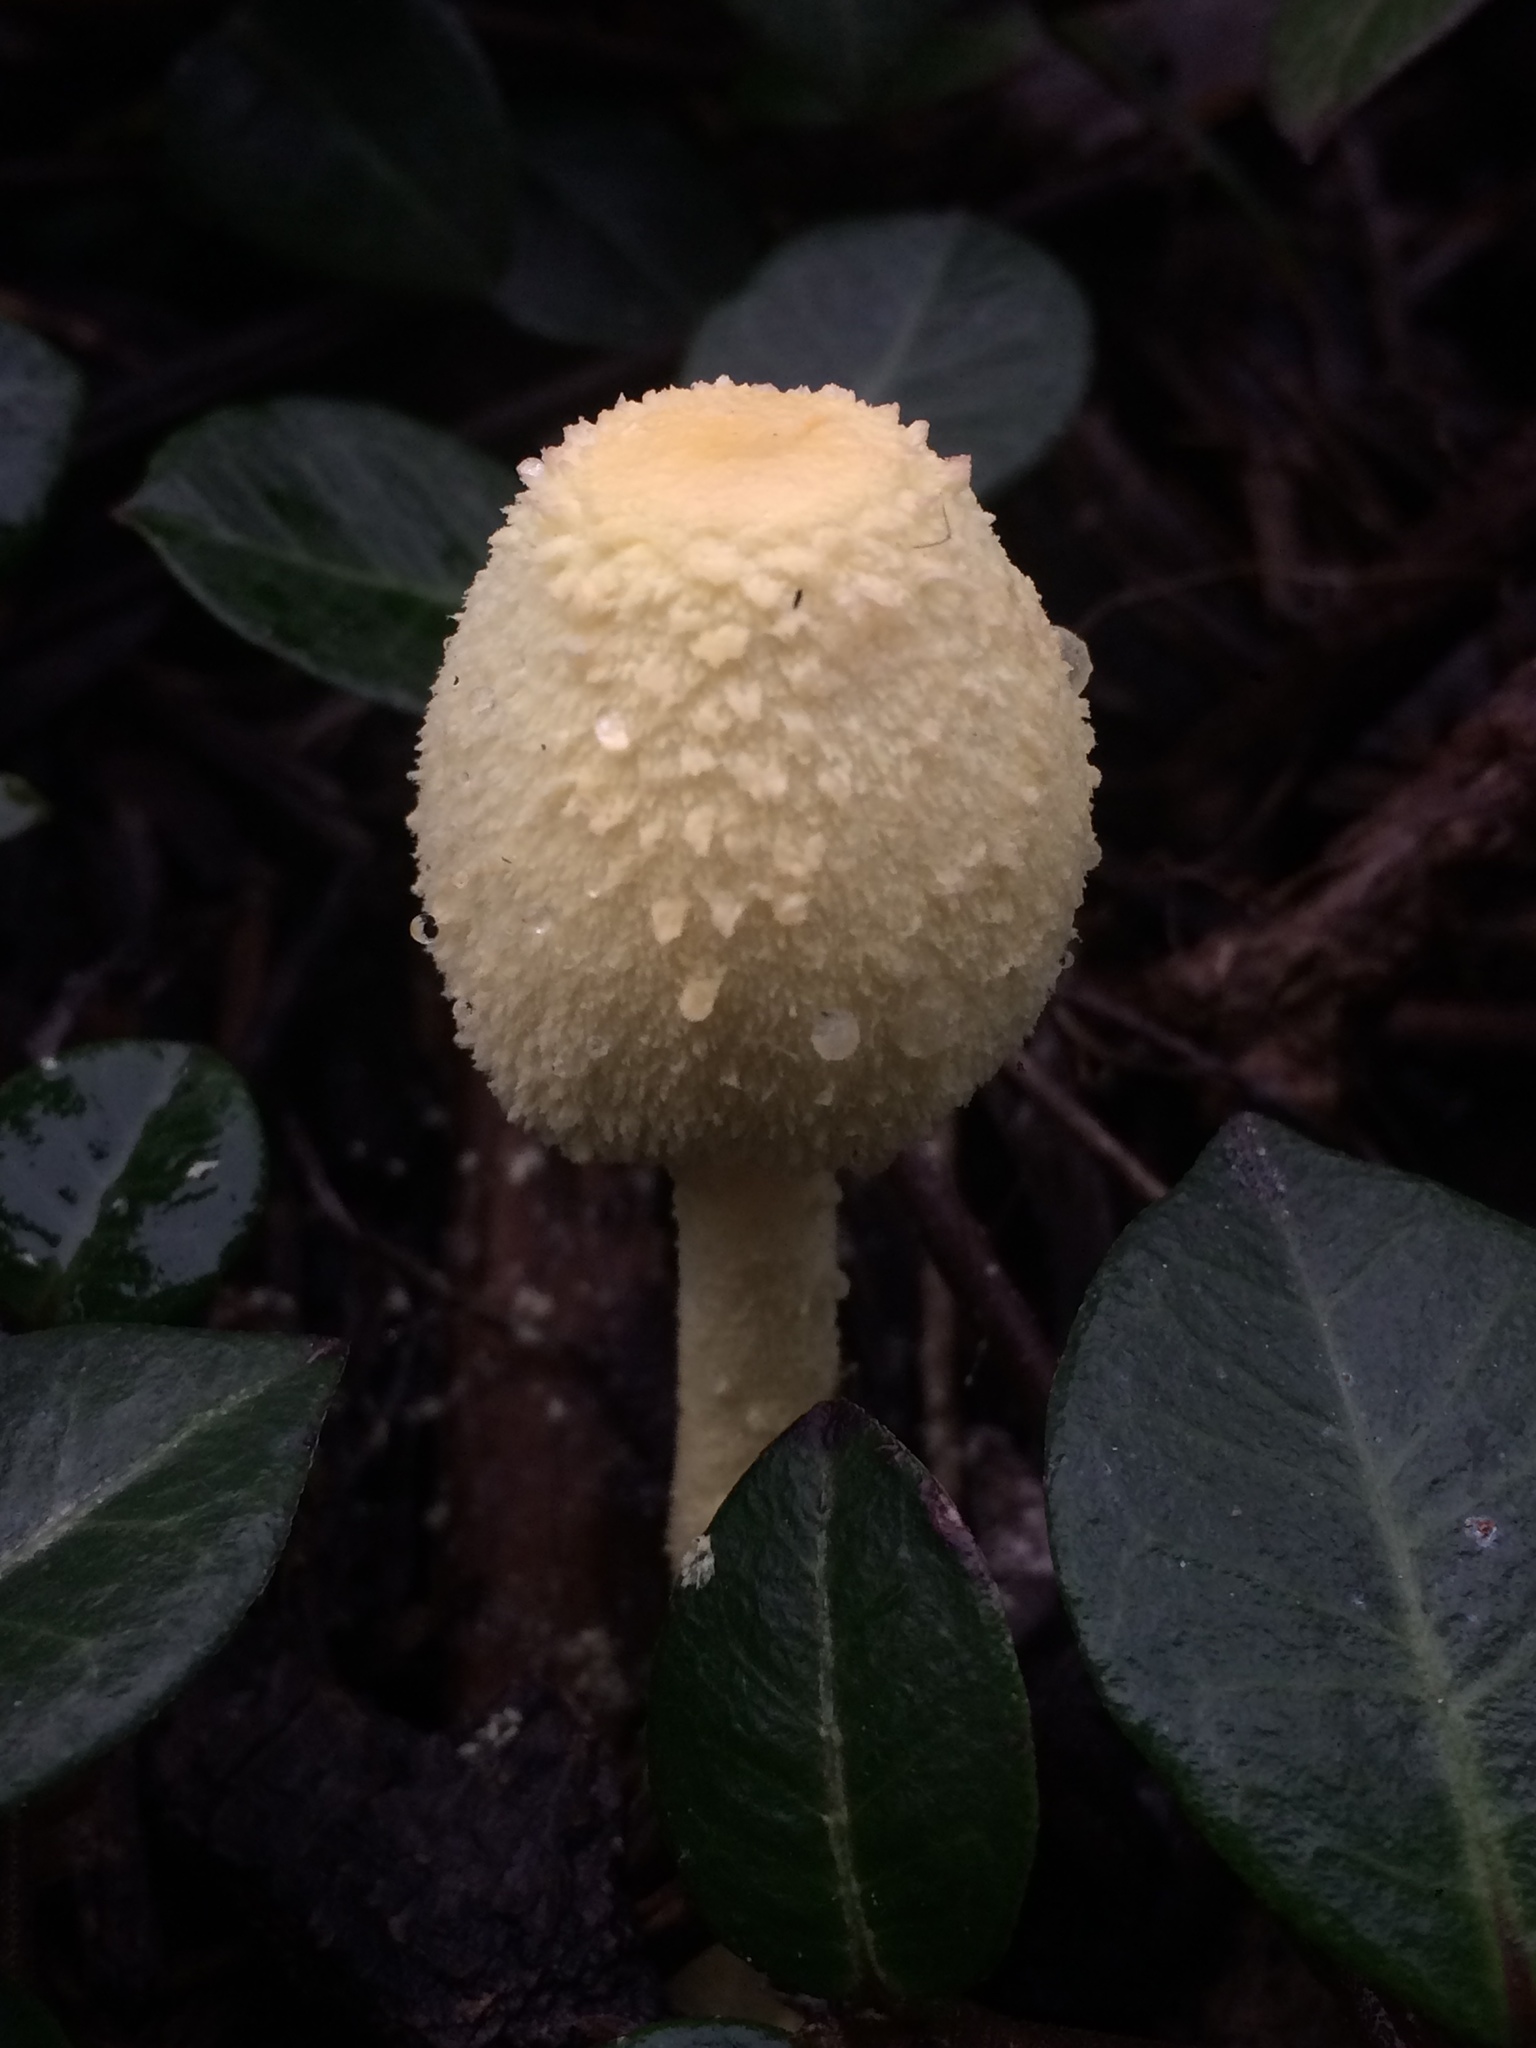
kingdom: Fungi
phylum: Basidiomycota
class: Agaricomycetes
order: Agaricales
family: Agaricaceae
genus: Leucocoprinus
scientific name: Leucocoprinus birnbaumii
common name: Plantpot dapperling
